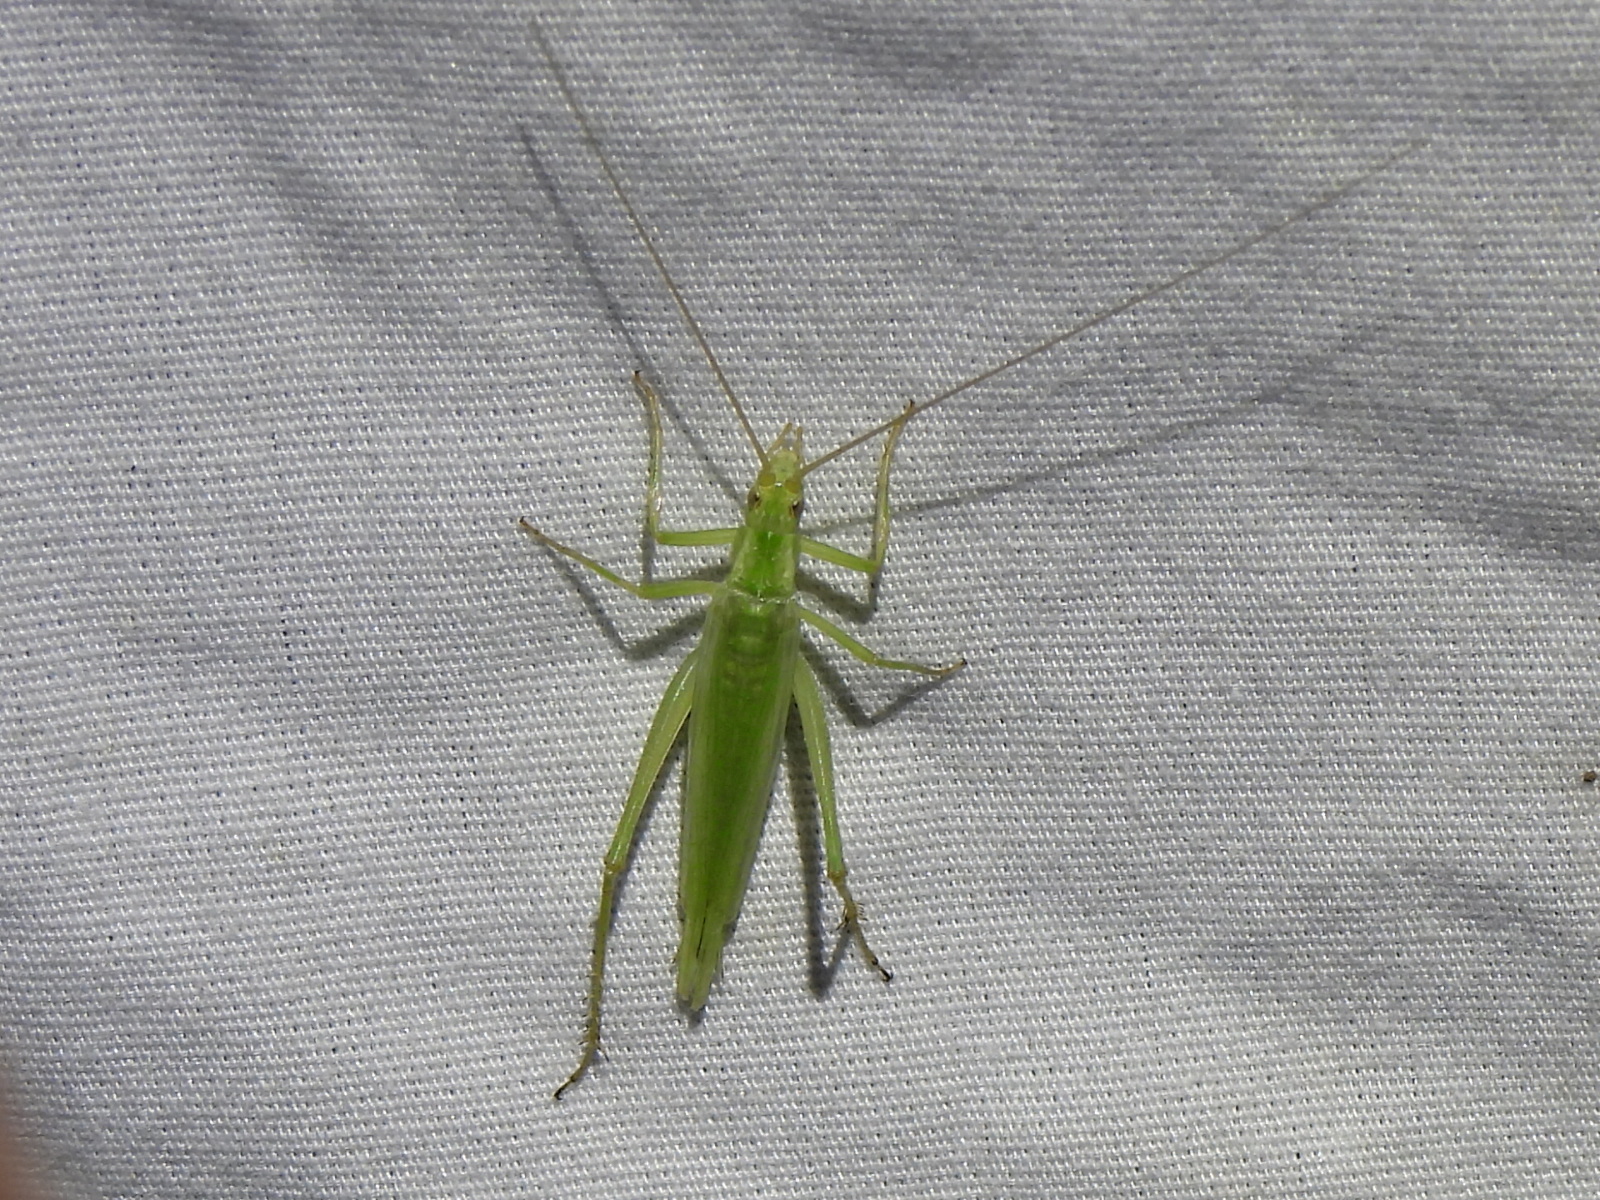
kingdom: Animalia
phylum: Arthropoda
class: Insecta
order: Orthoptera
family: Gryllidae
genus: Oecanthus
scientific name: Oecanthus celerinictus
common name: Fast-calling tree cricket
